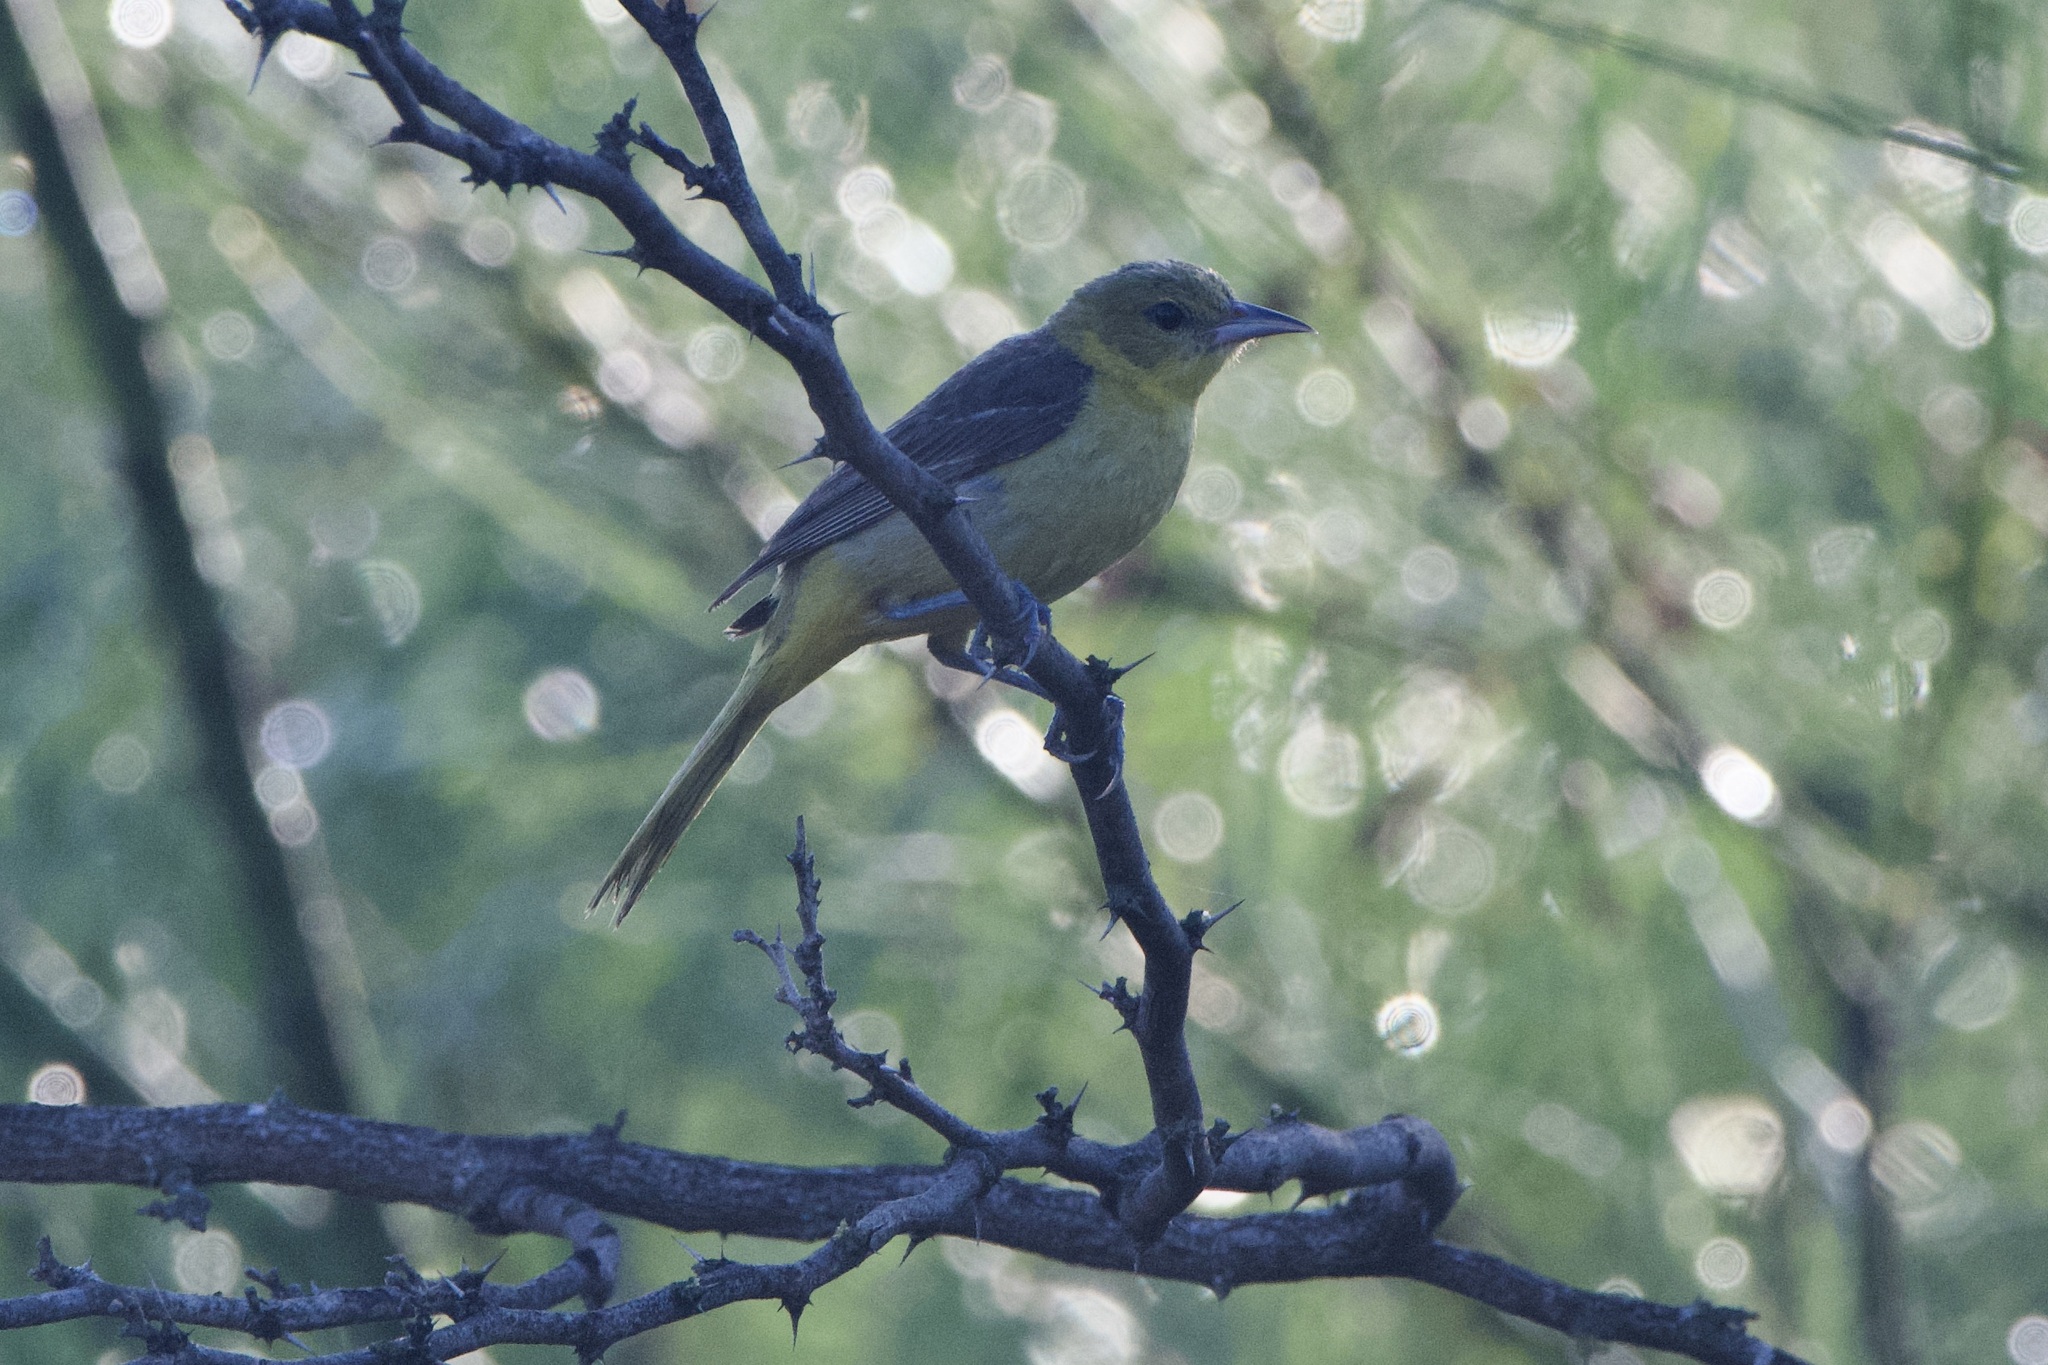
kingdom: Animalia
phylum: Chordata
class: Aves
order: Passeriformes
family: Icteridae
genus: Icterus
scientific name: Icterus spurius
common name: Orchard oriole
